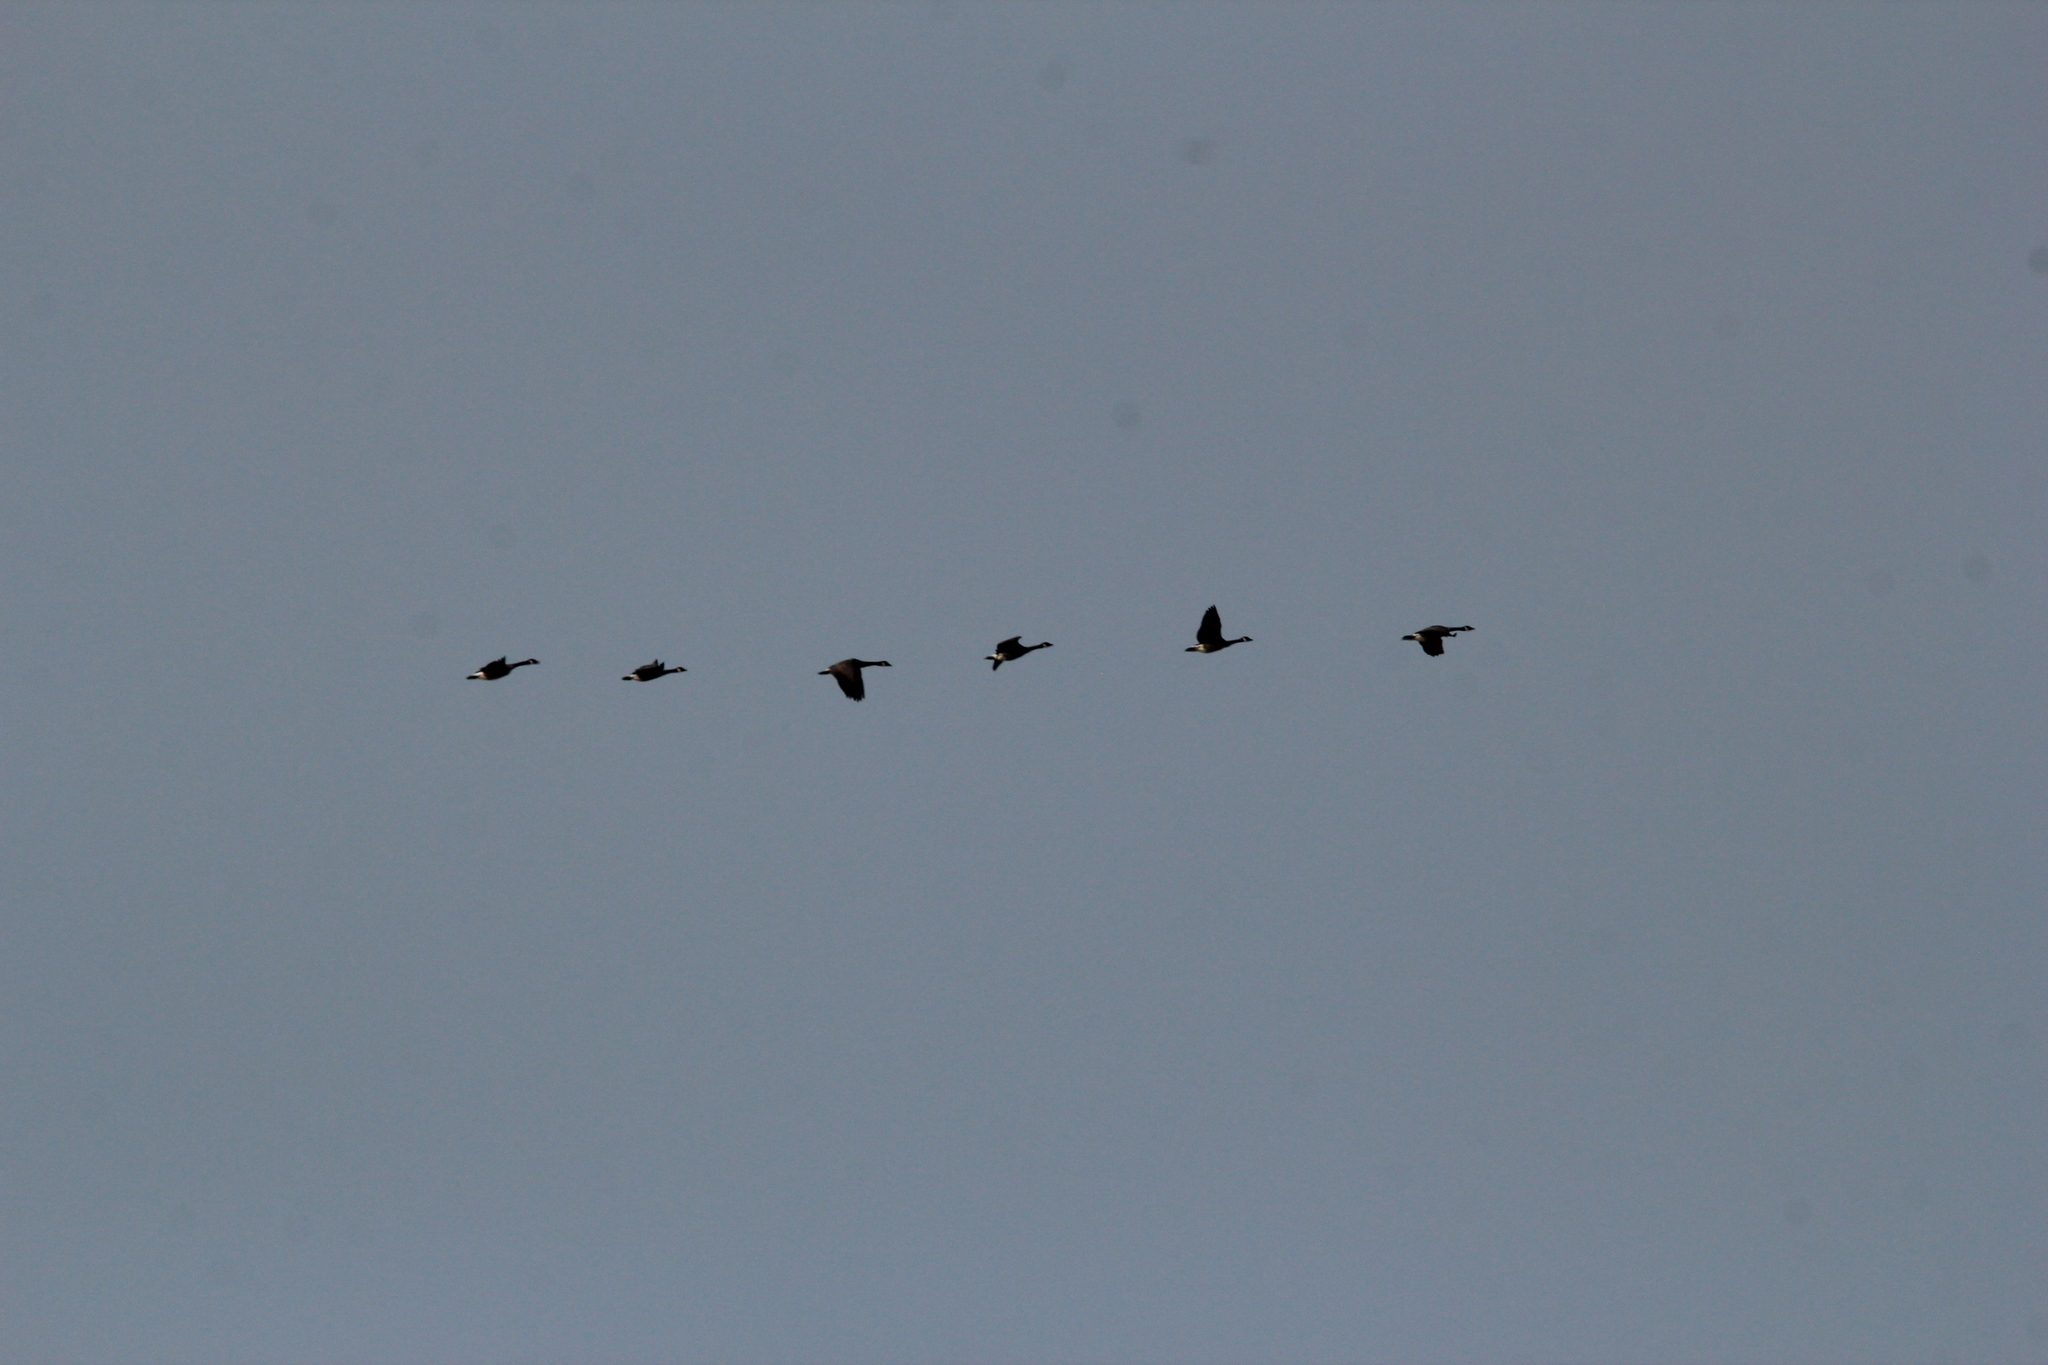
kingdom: Animalia
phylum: Chordata
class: Aves
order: Anseriformes
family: Anatidae
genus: Branta
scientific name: Branta canadensis
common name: Canada goose
